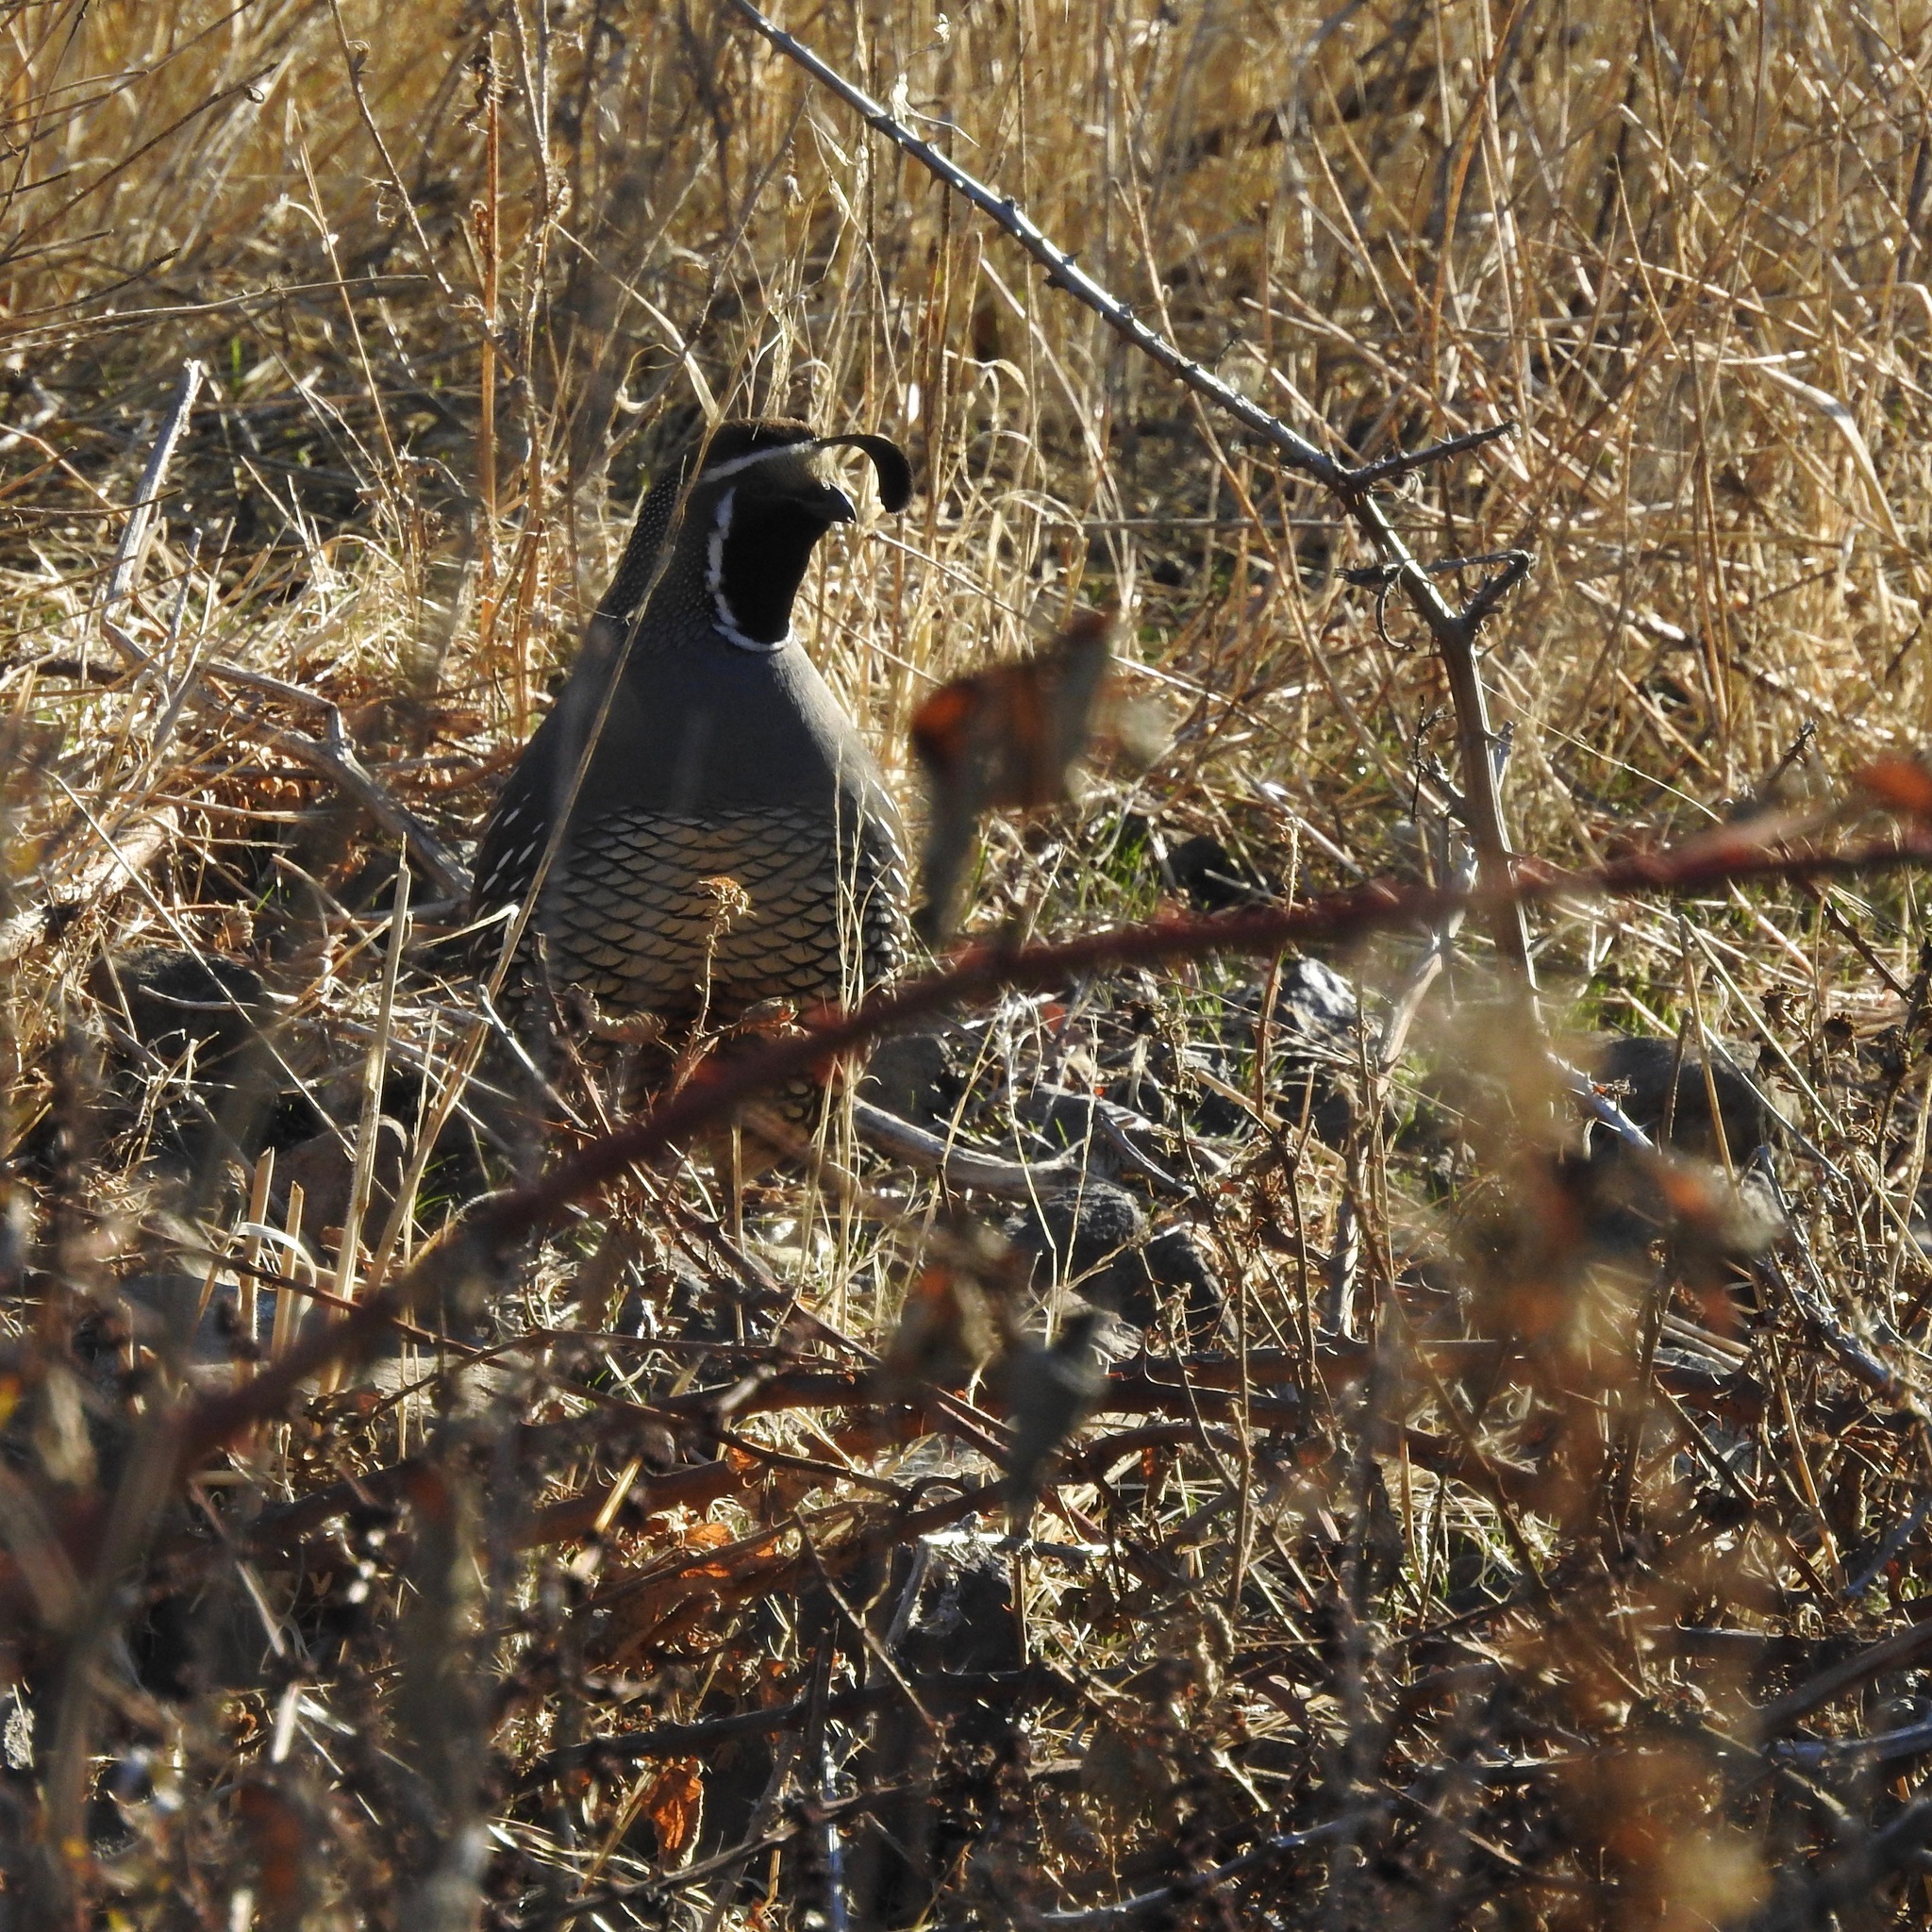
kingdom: Animalia
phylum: Chordata
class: Aves
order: Galliformes
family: Odontophoridae
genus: Callipepla
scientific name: Callipepla californica
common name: California quail
